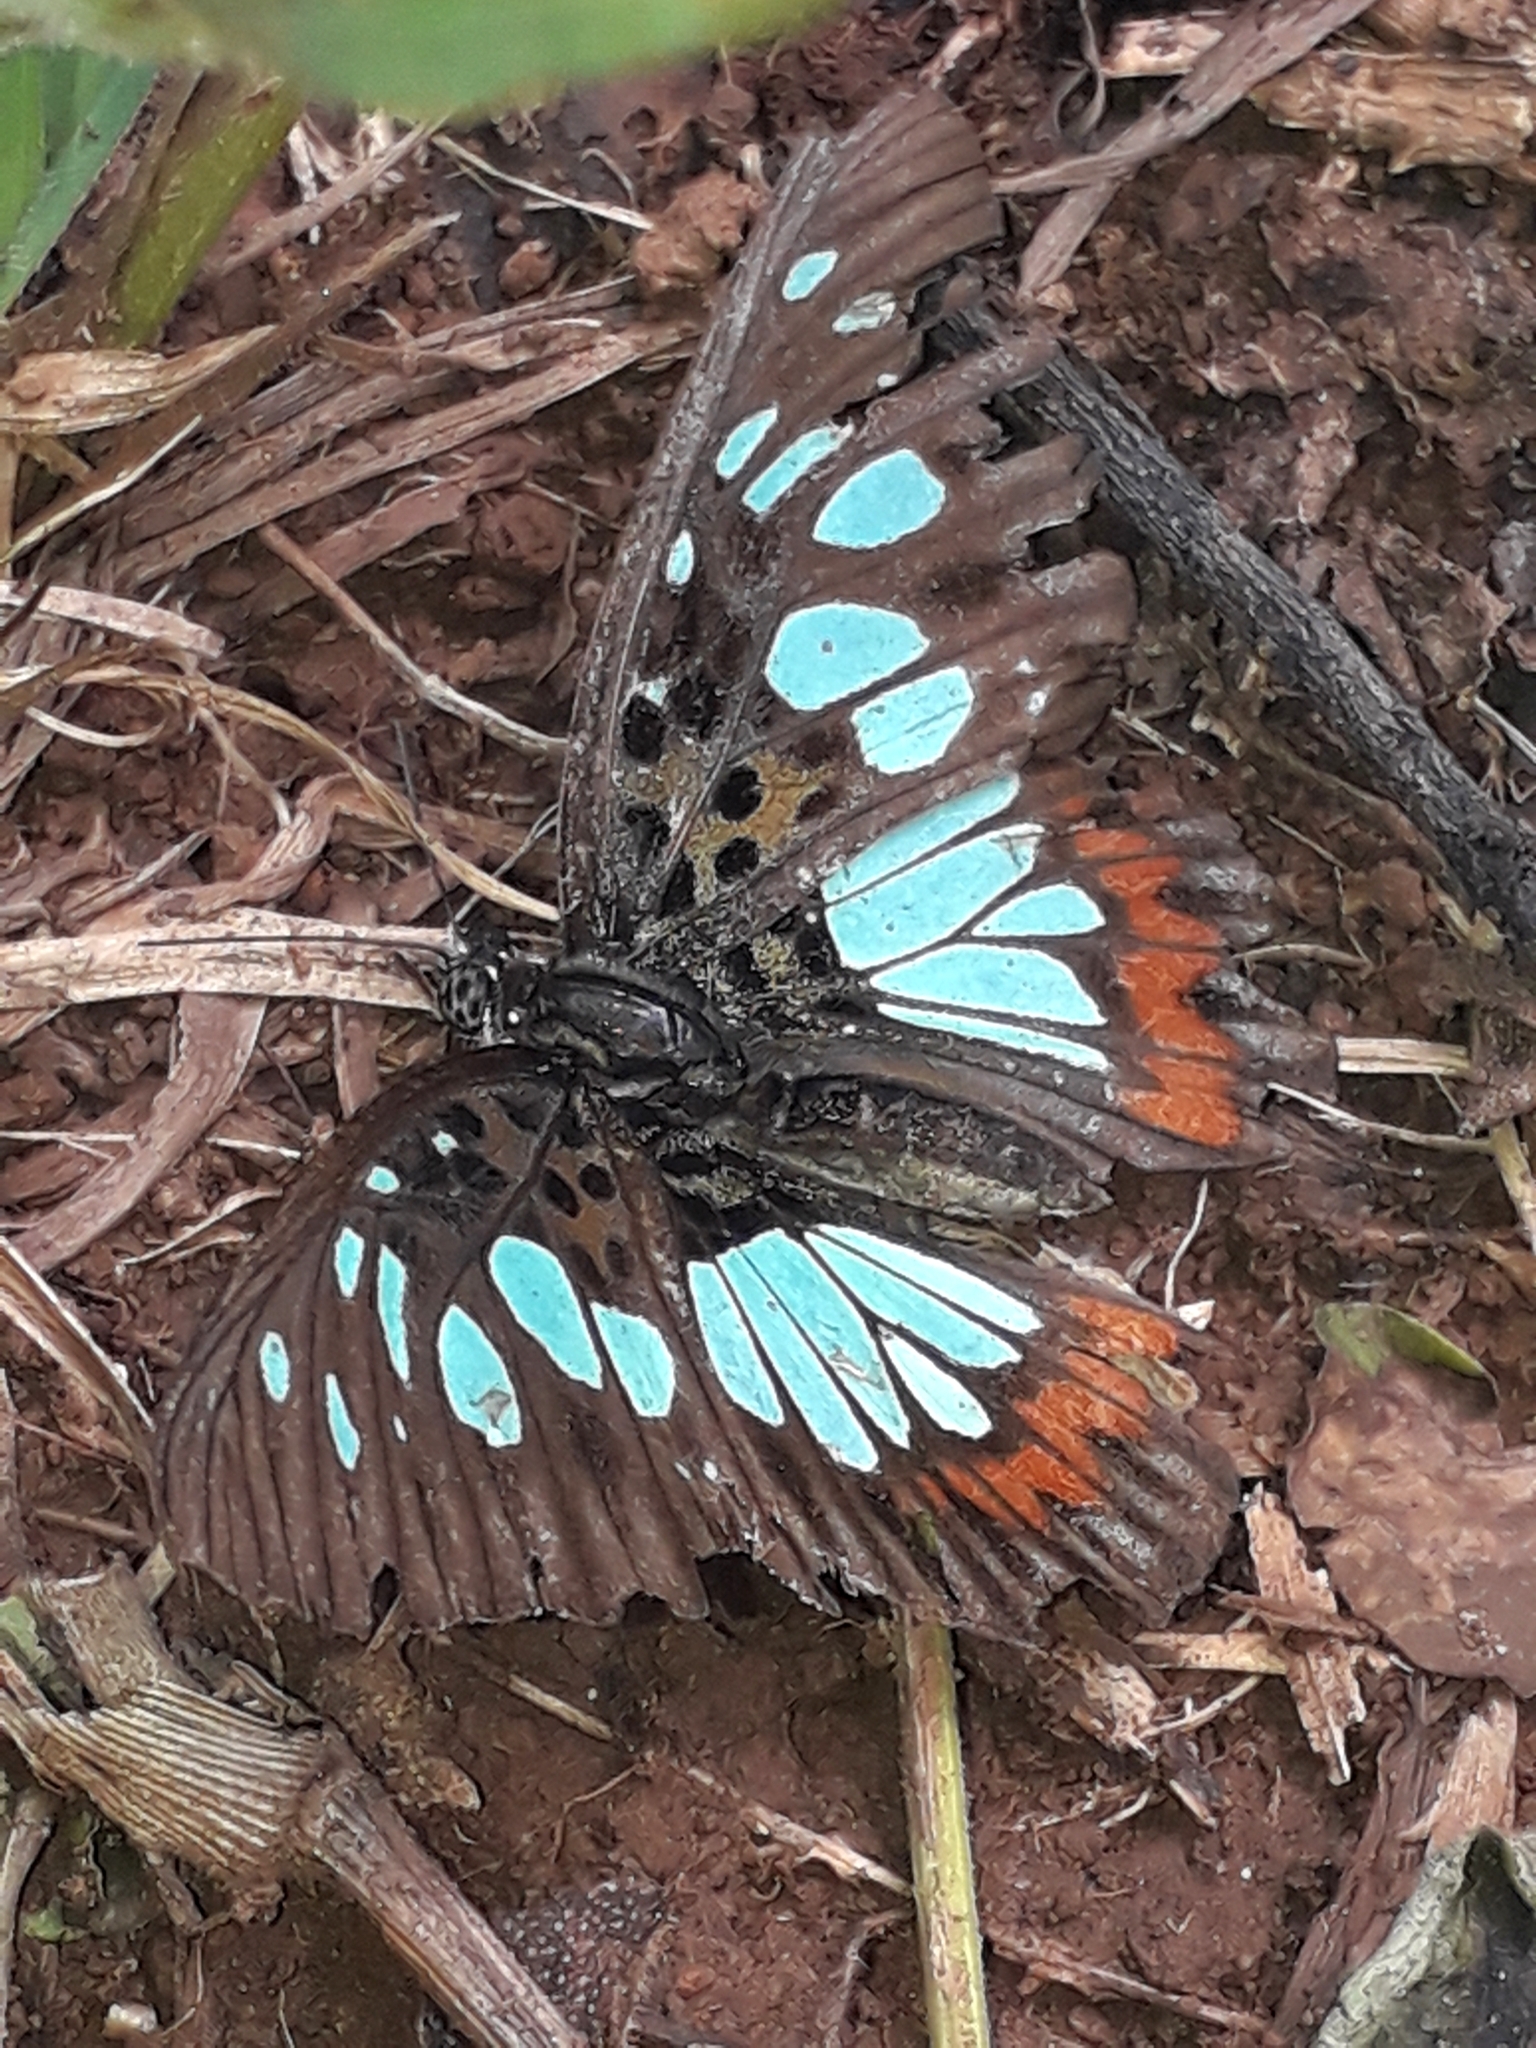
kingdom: Animalia
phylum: Arthropoda
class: Insecta
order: Lepidoptera
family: Nymphalidae
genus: Chloropoea
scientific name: Chloropoea semire
